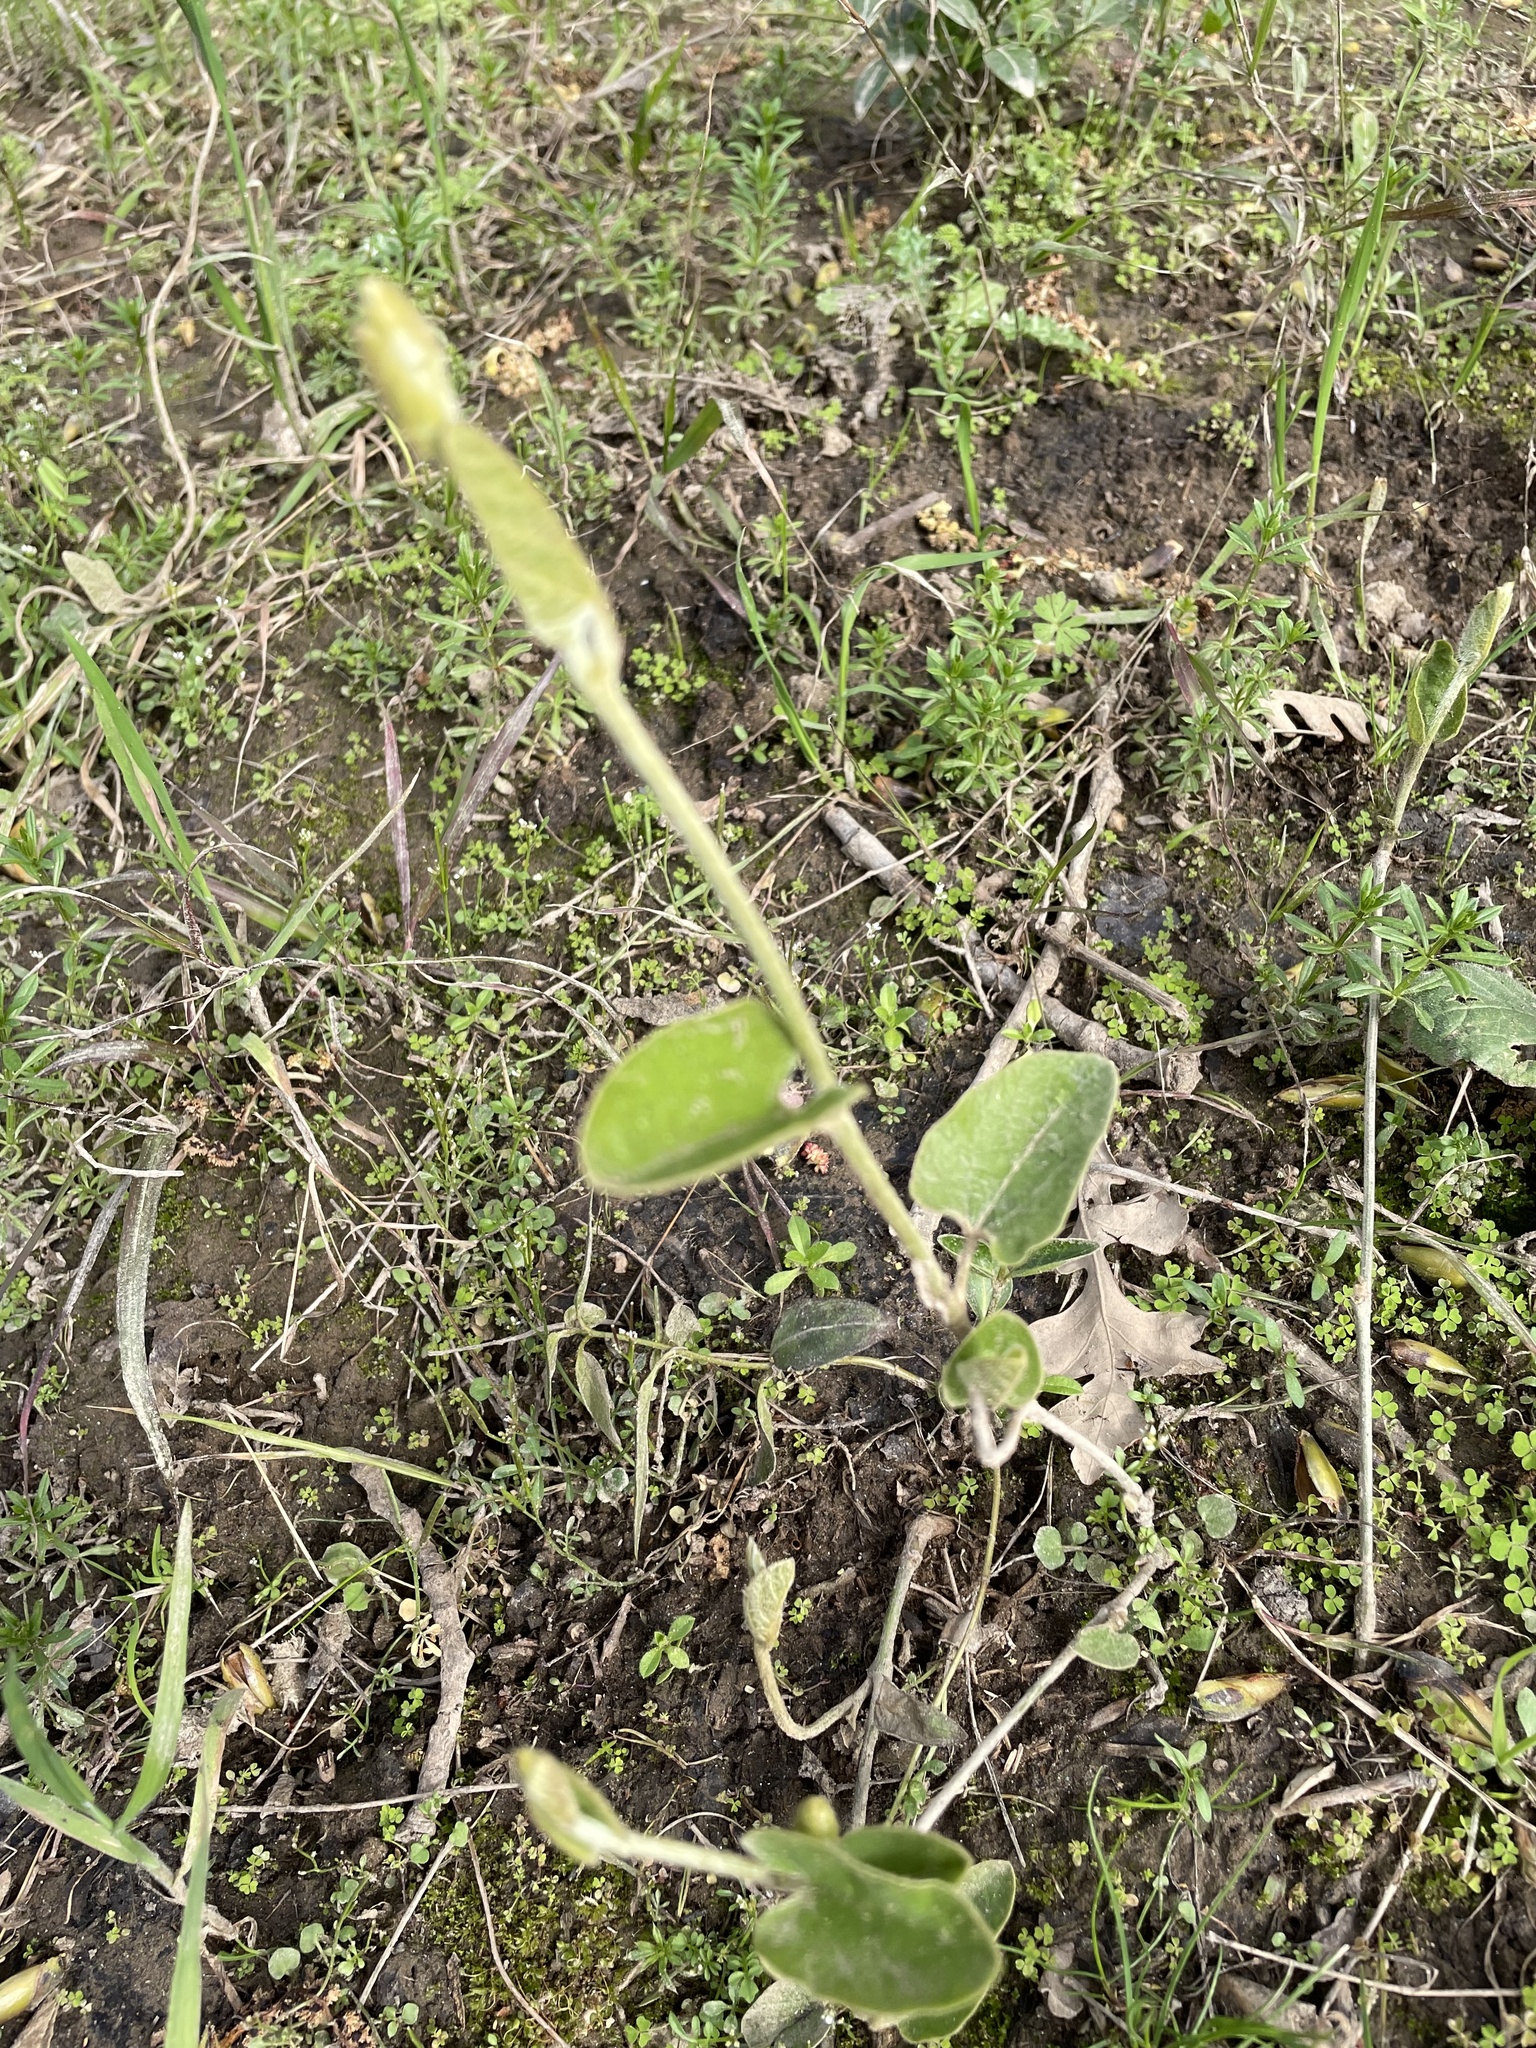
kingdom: Plantae
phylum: Tracheophyta
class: Magnoliopsida
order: Piperales
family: Aristolochiaceae
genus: Isotrema
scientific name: Isotrema californicum
